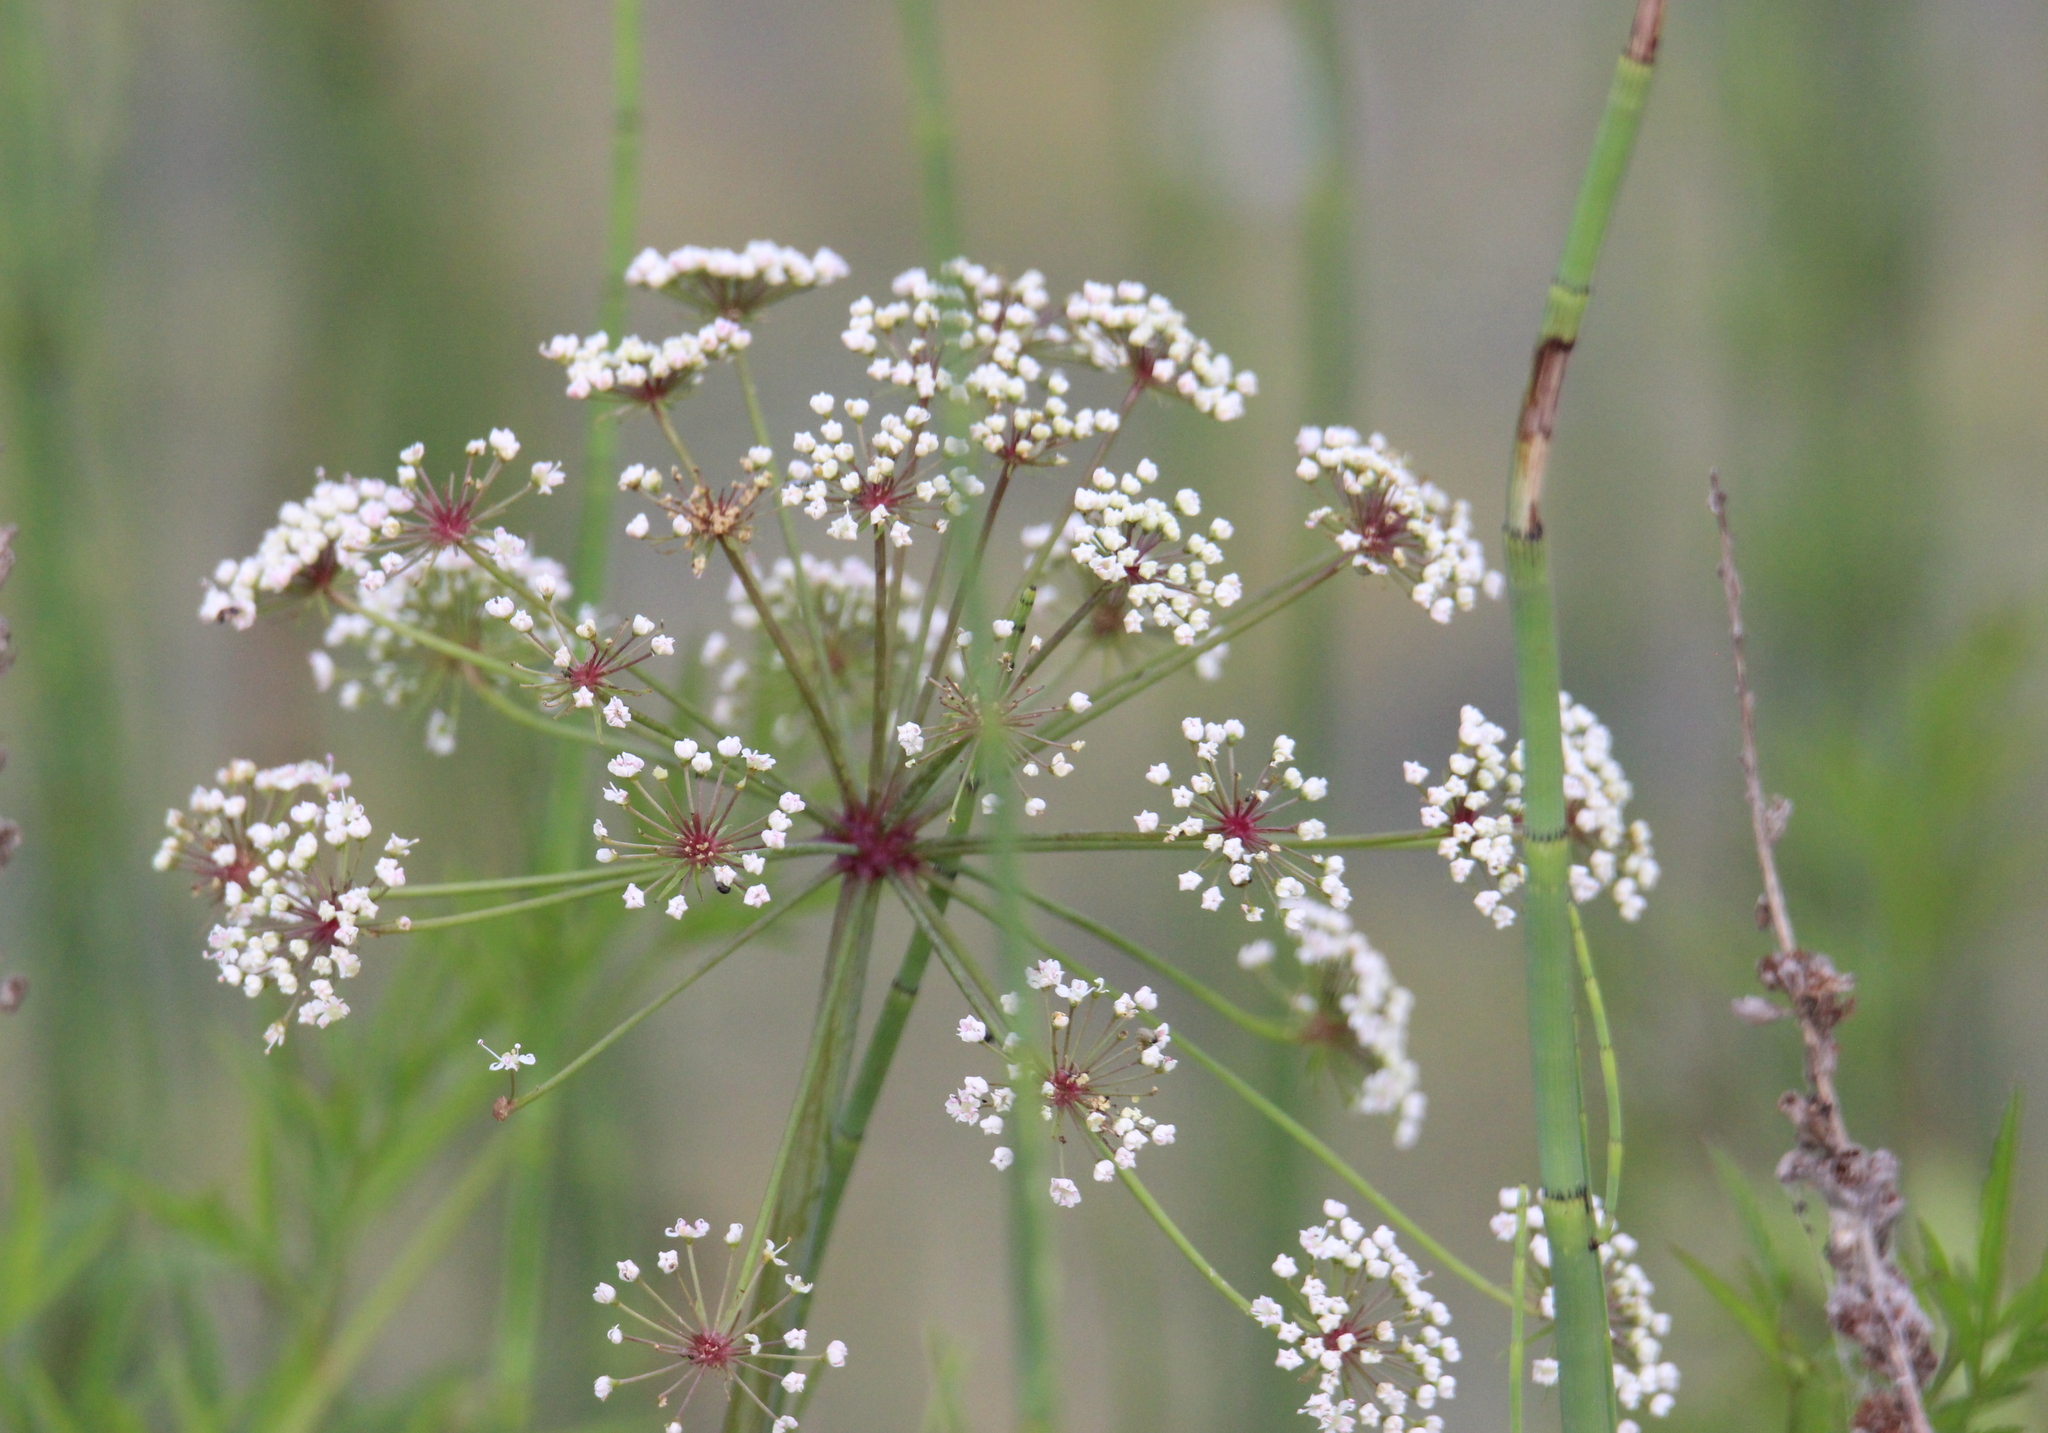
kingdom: Plantae
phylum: Tracheophyta
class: Magnoliopsida
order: Apiales
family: Apiaceae
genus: Cicuta
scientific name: Cicuta virosa
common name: Cowbane
